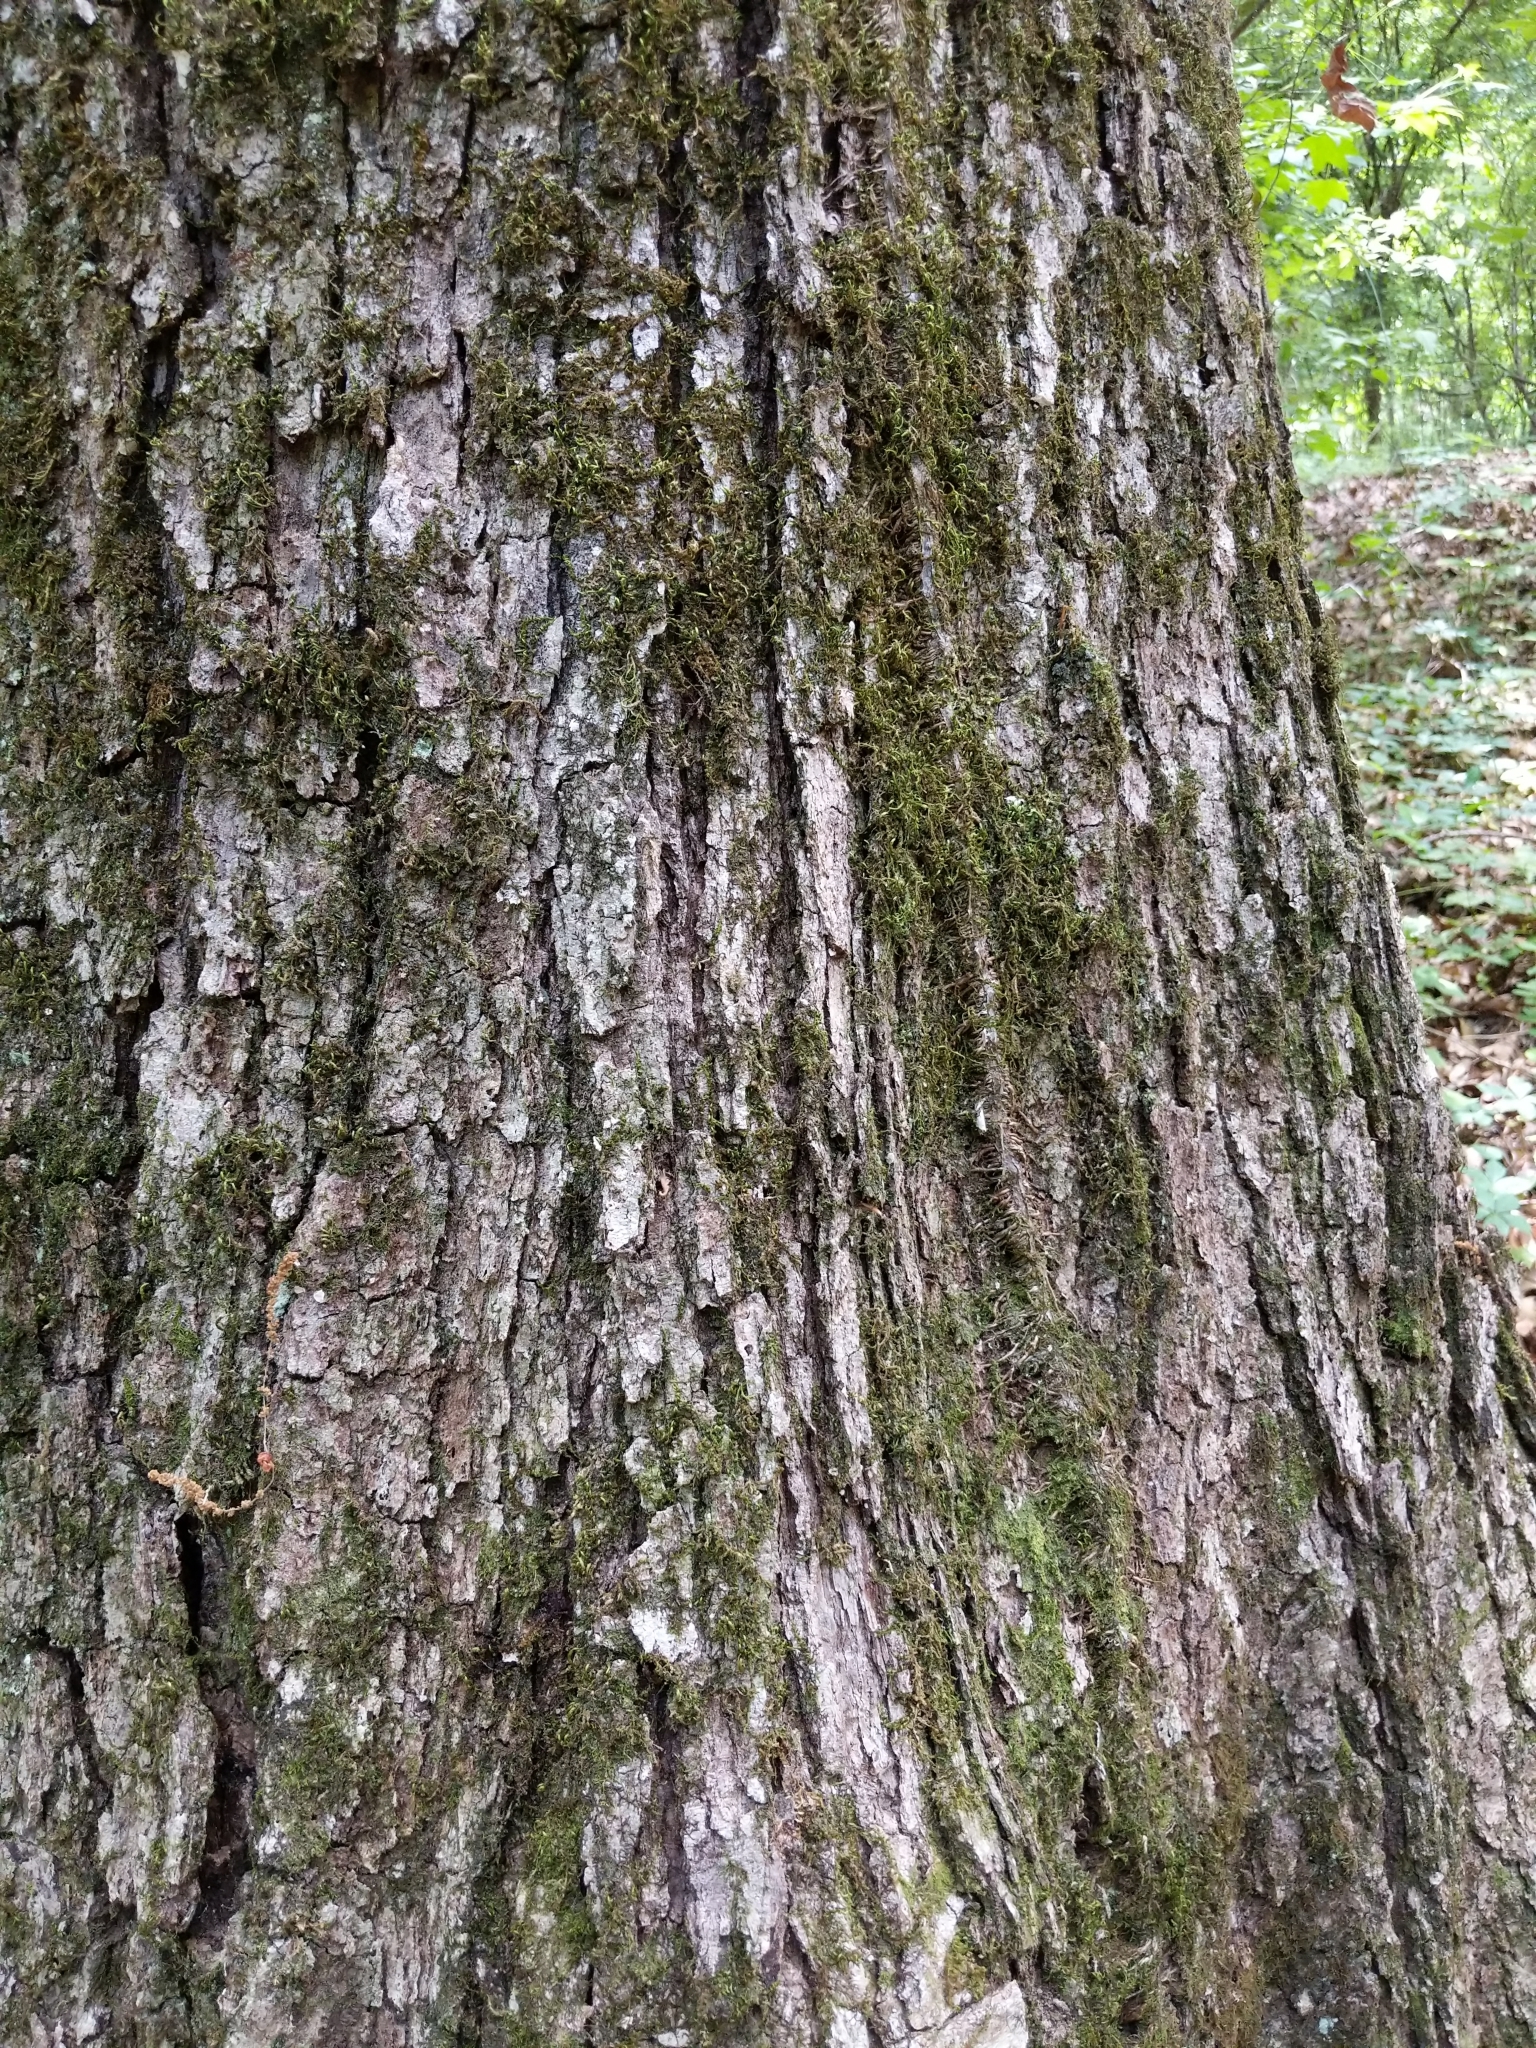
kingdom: Plantae
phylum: Tracheophyta
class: Magnoliopsida
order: Fagales
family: Fagaceae
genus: Quercus
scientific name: Quercus alba
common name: White oak
